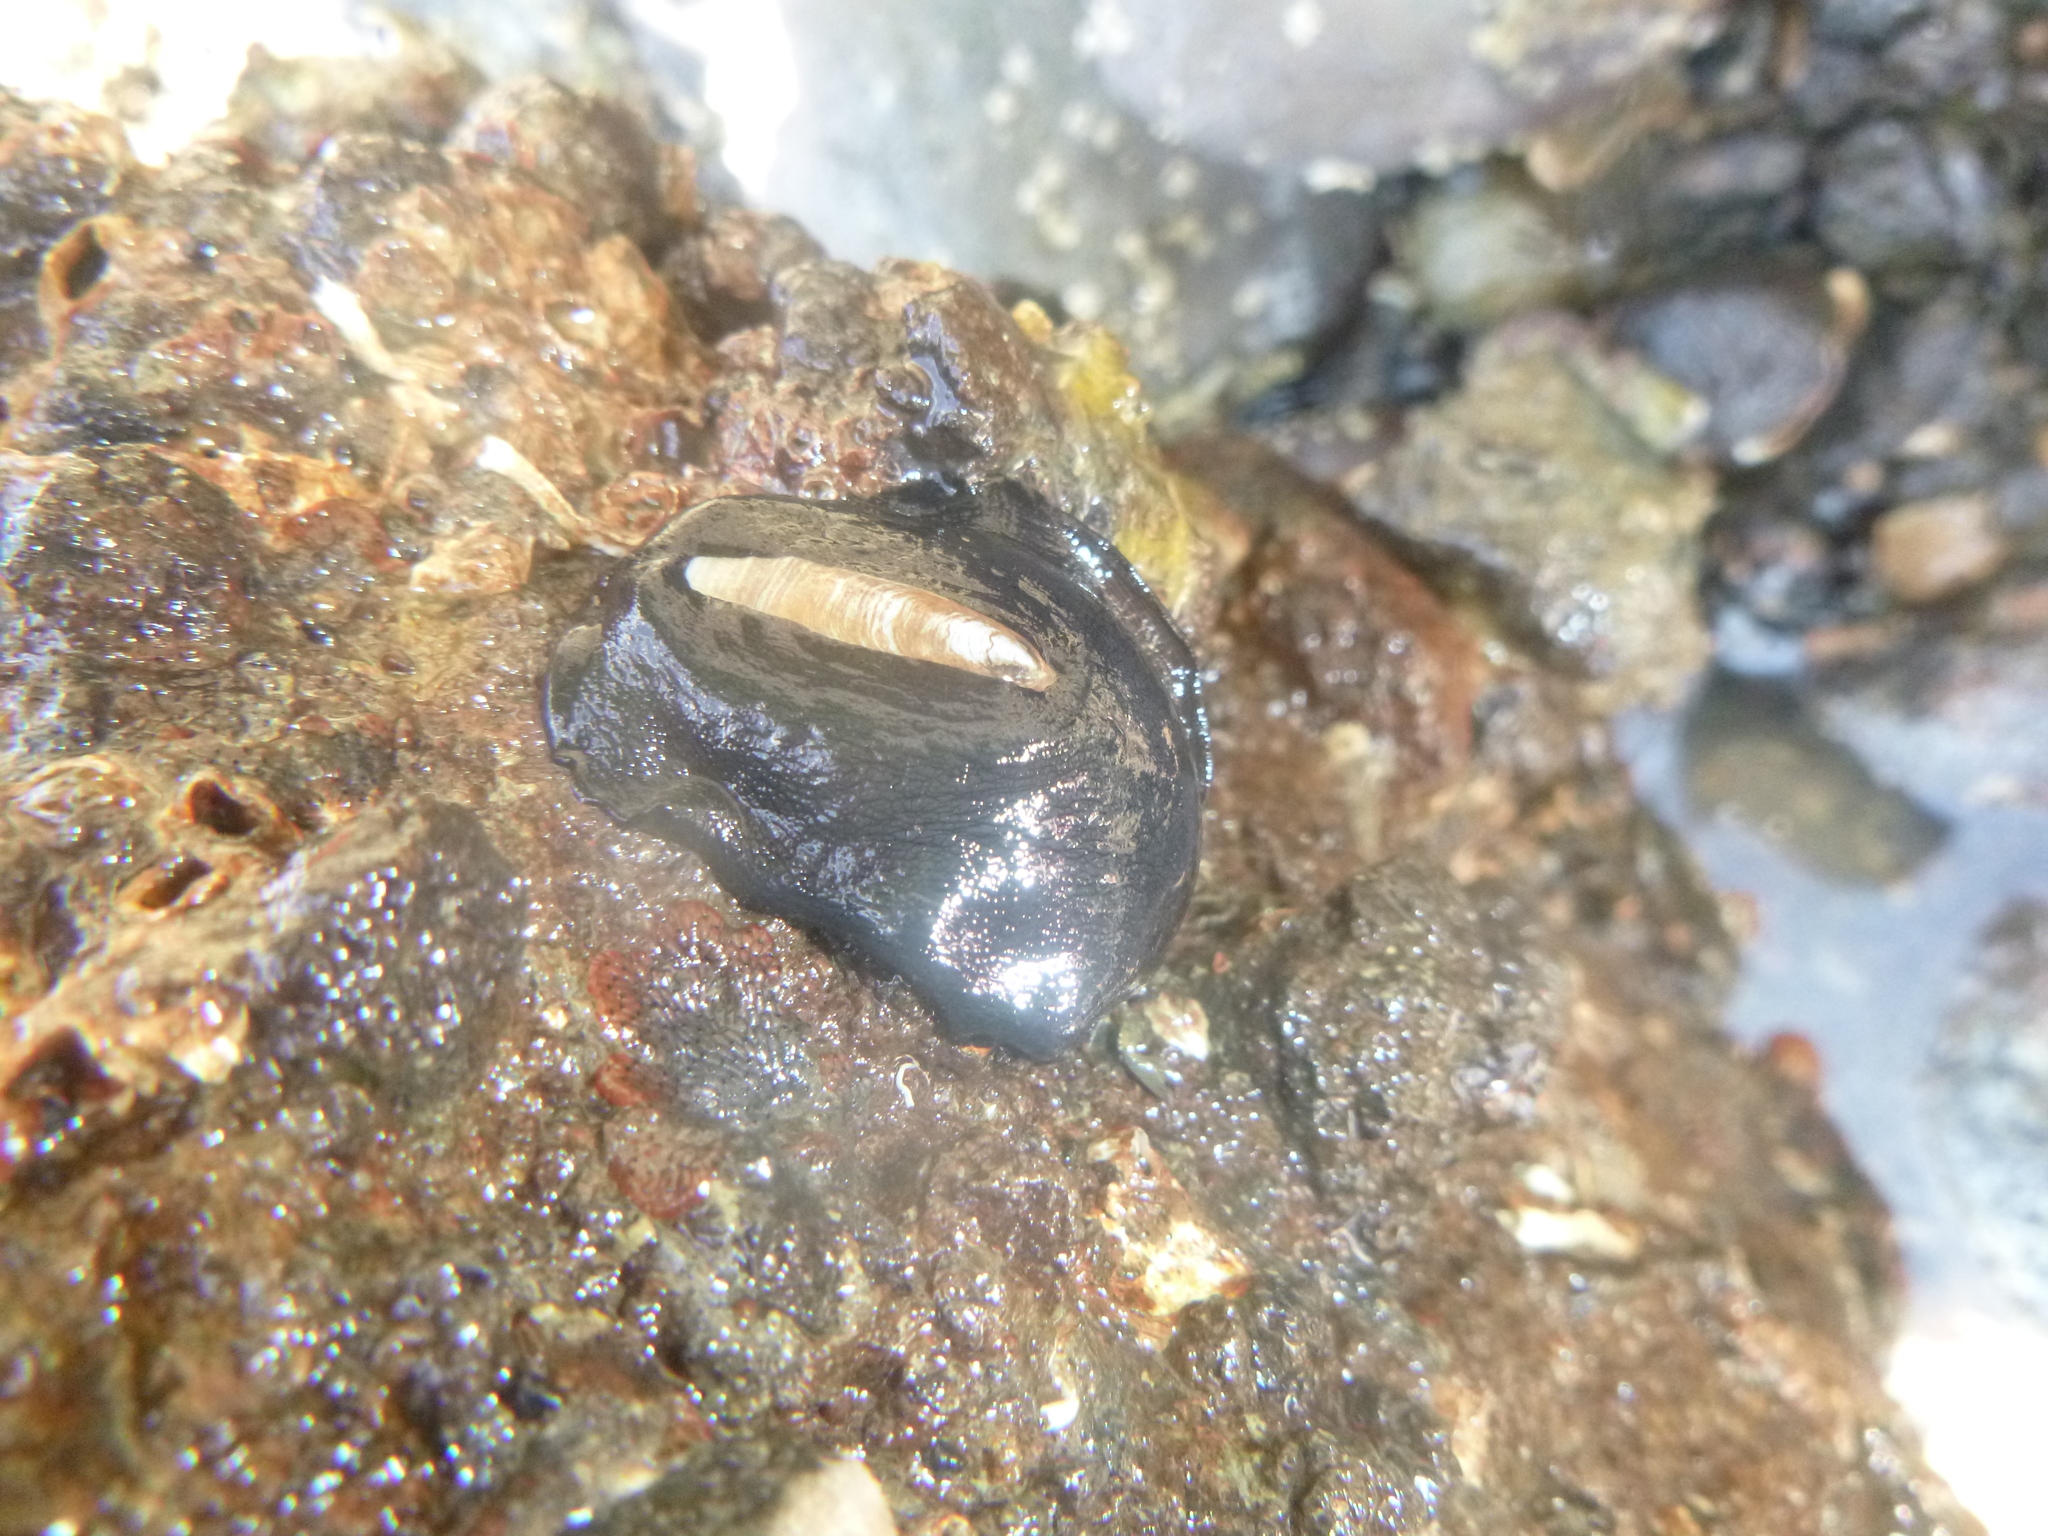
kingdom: Animalia
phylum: Mollusca
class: Gastropoda
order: Lepetellida
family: Fissurellidae
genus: Scutus
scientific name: Scutus breviculus
